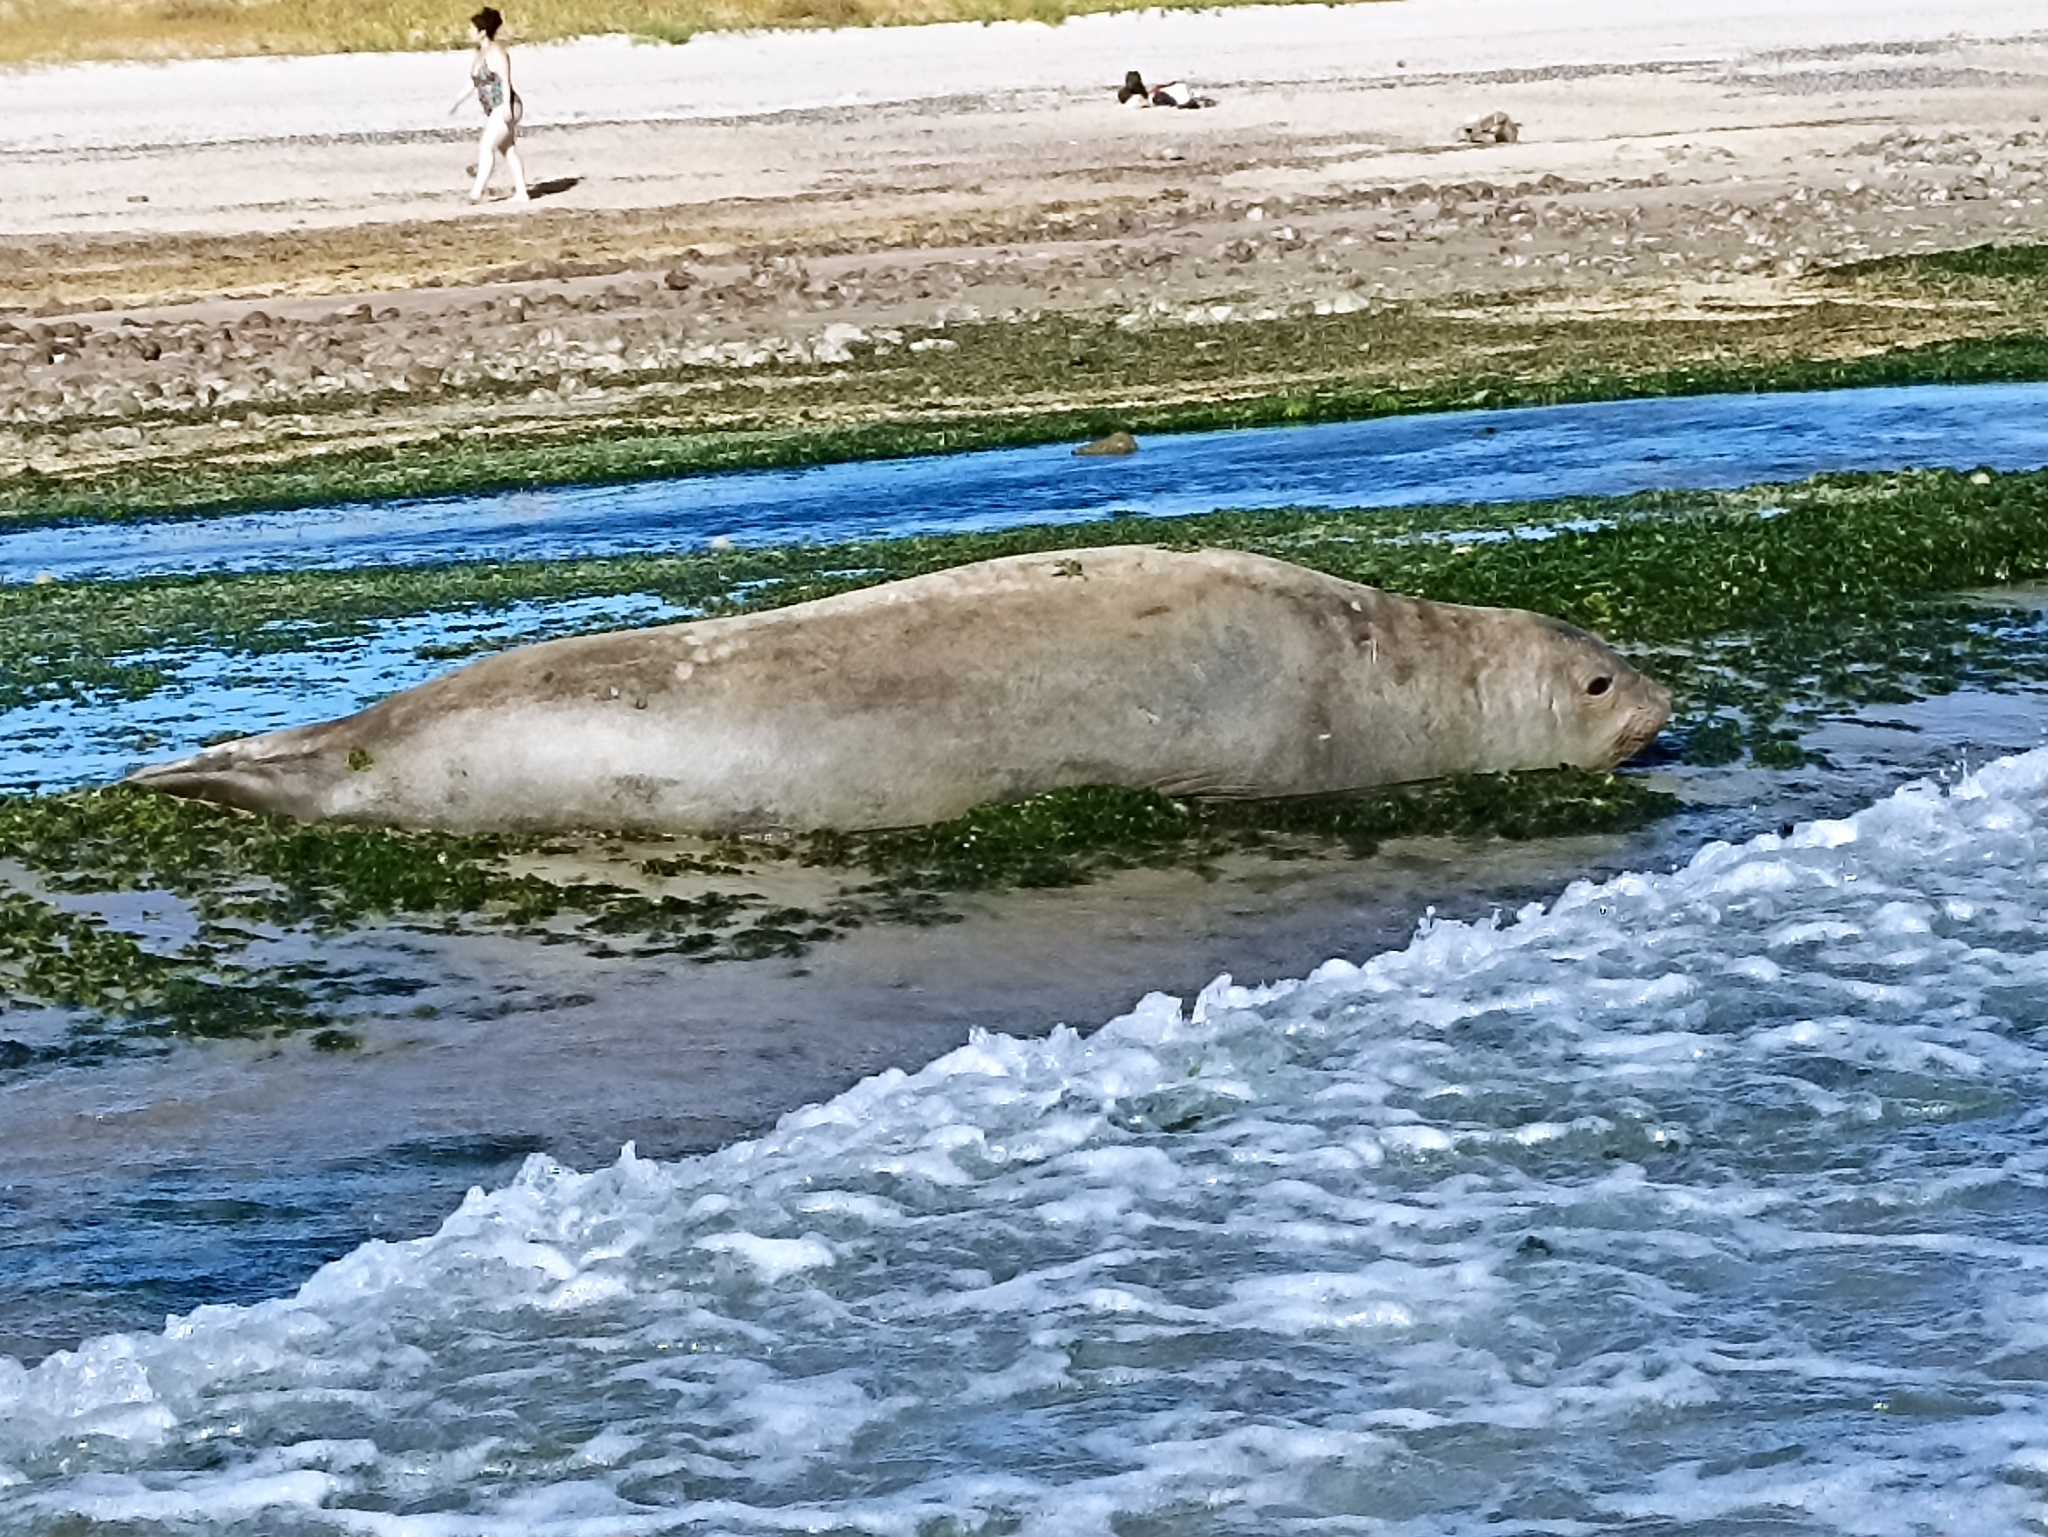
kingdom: Animalia
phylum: Chordata
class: Mammalia
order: Carnivora
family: Phocidae
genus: Mirounga
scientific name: Mirounga leonina
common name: Southern elephant seal
